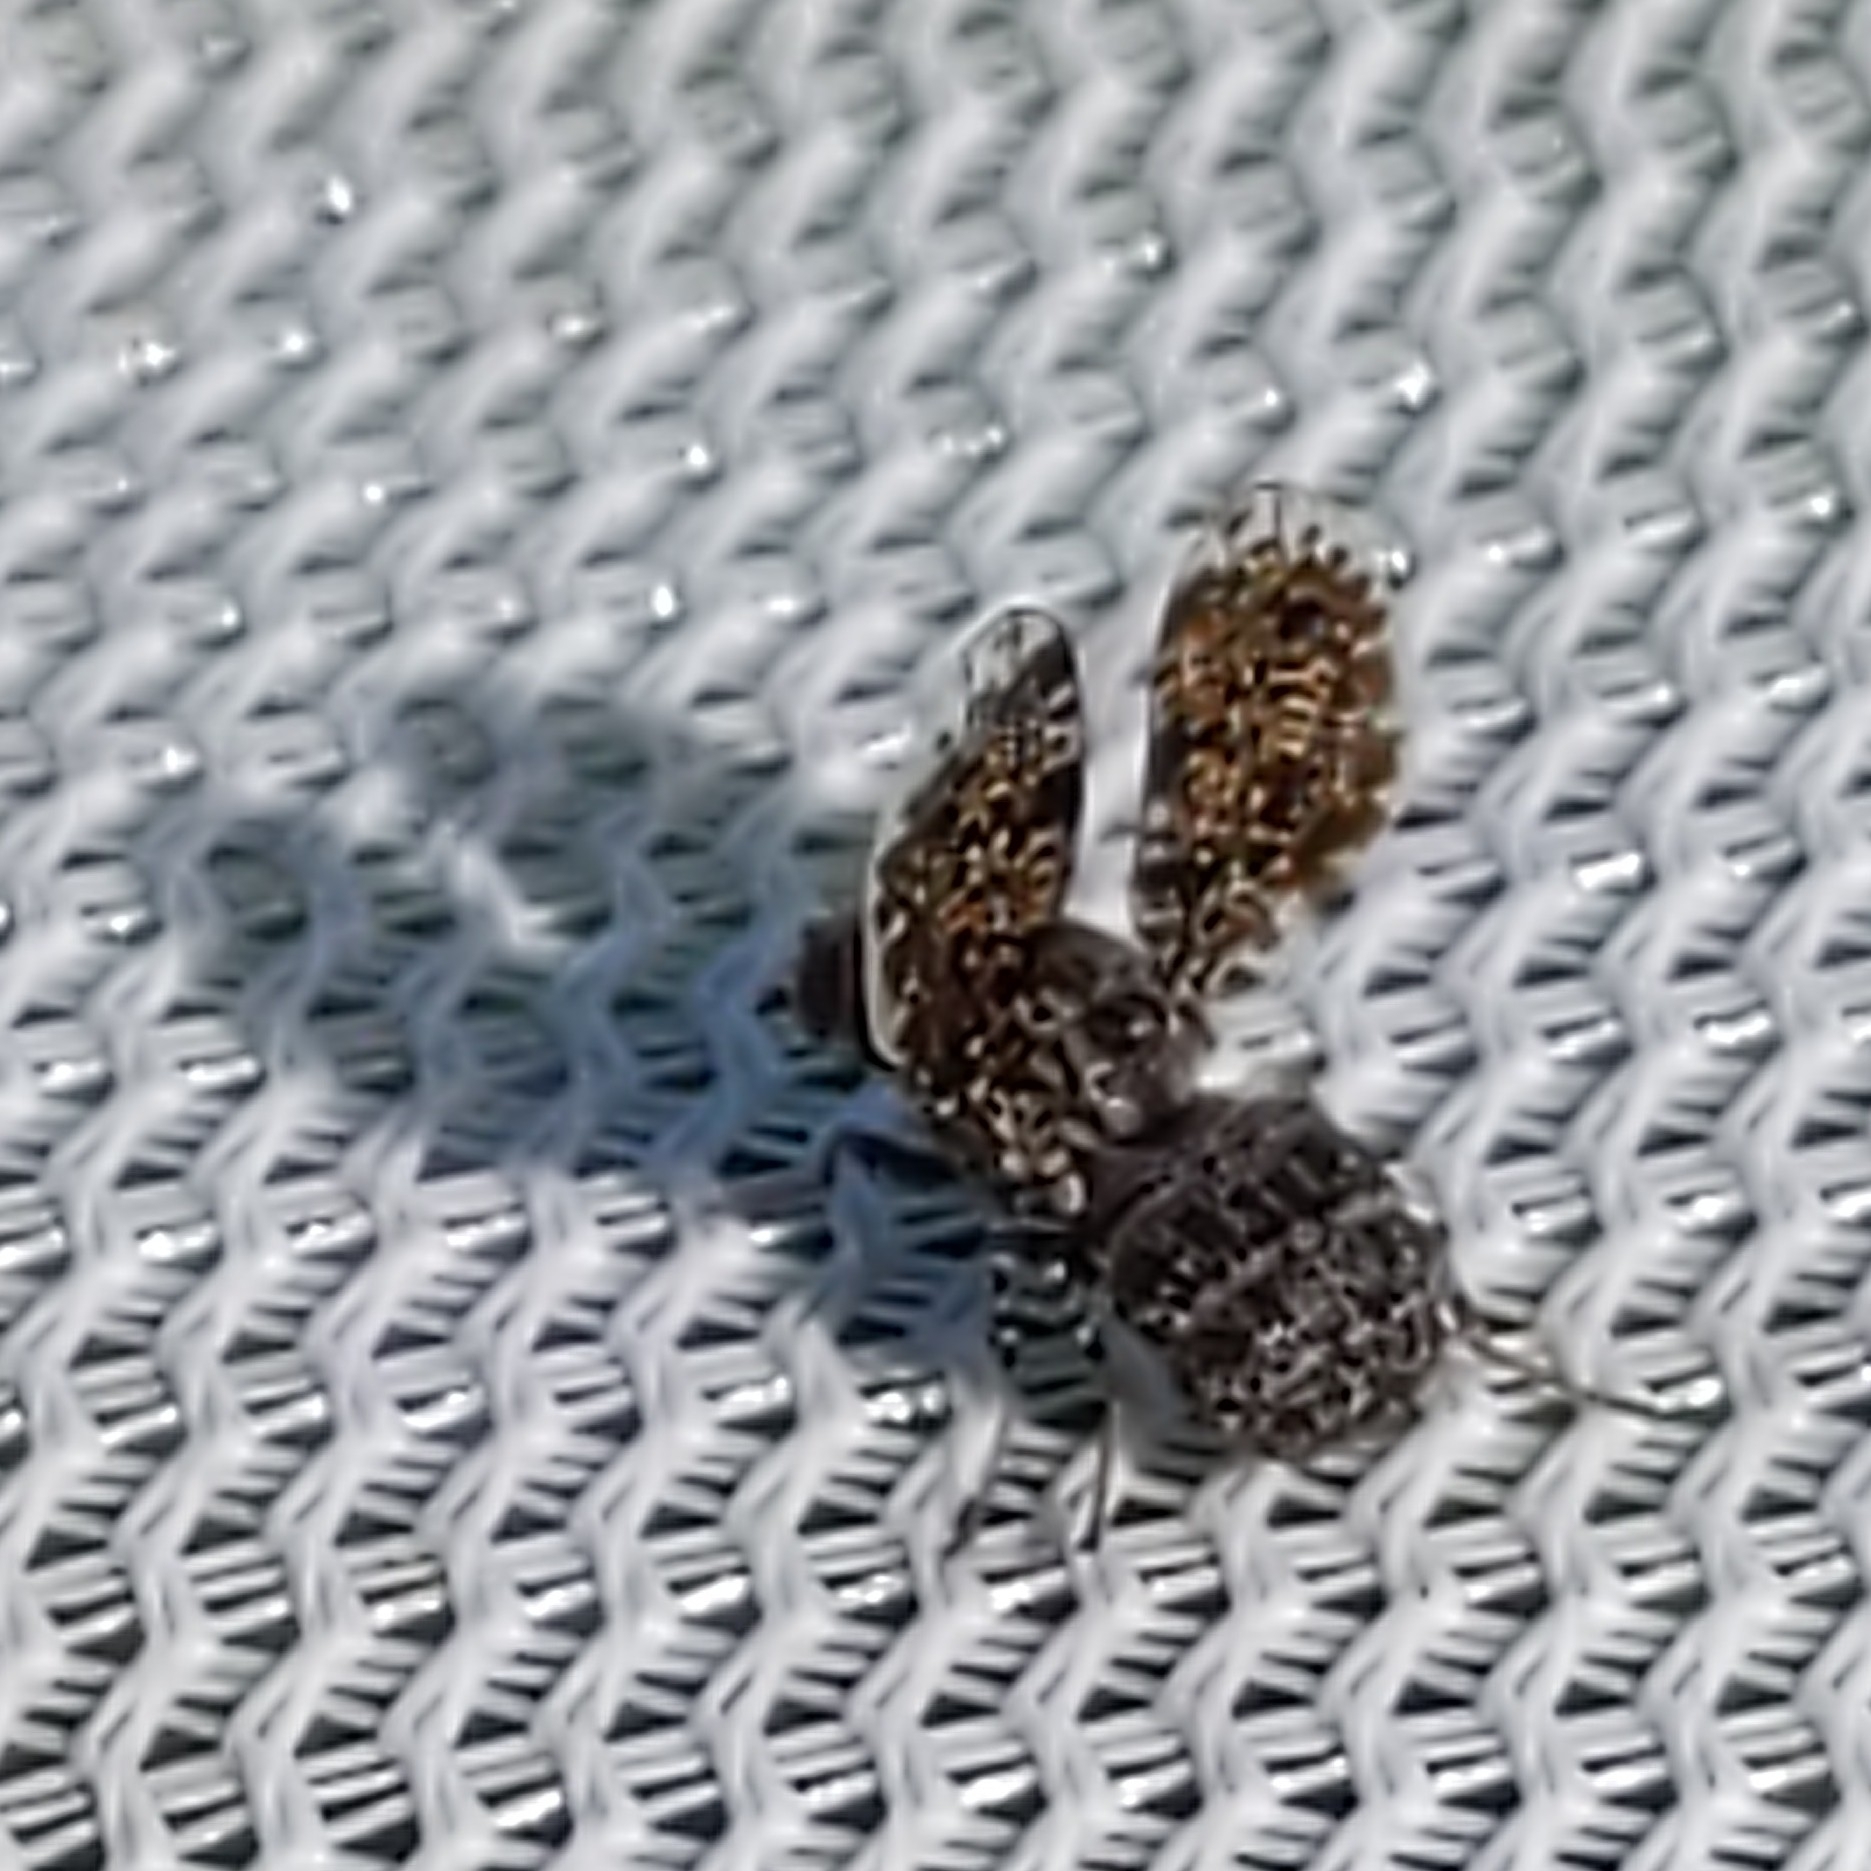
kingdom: Animalia
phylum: Arthropoda
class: Insecta
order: Diptera
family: Ulidiidae
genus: Callopistromyia
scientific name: Callopistromyia annulipes
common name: Peacock fly
